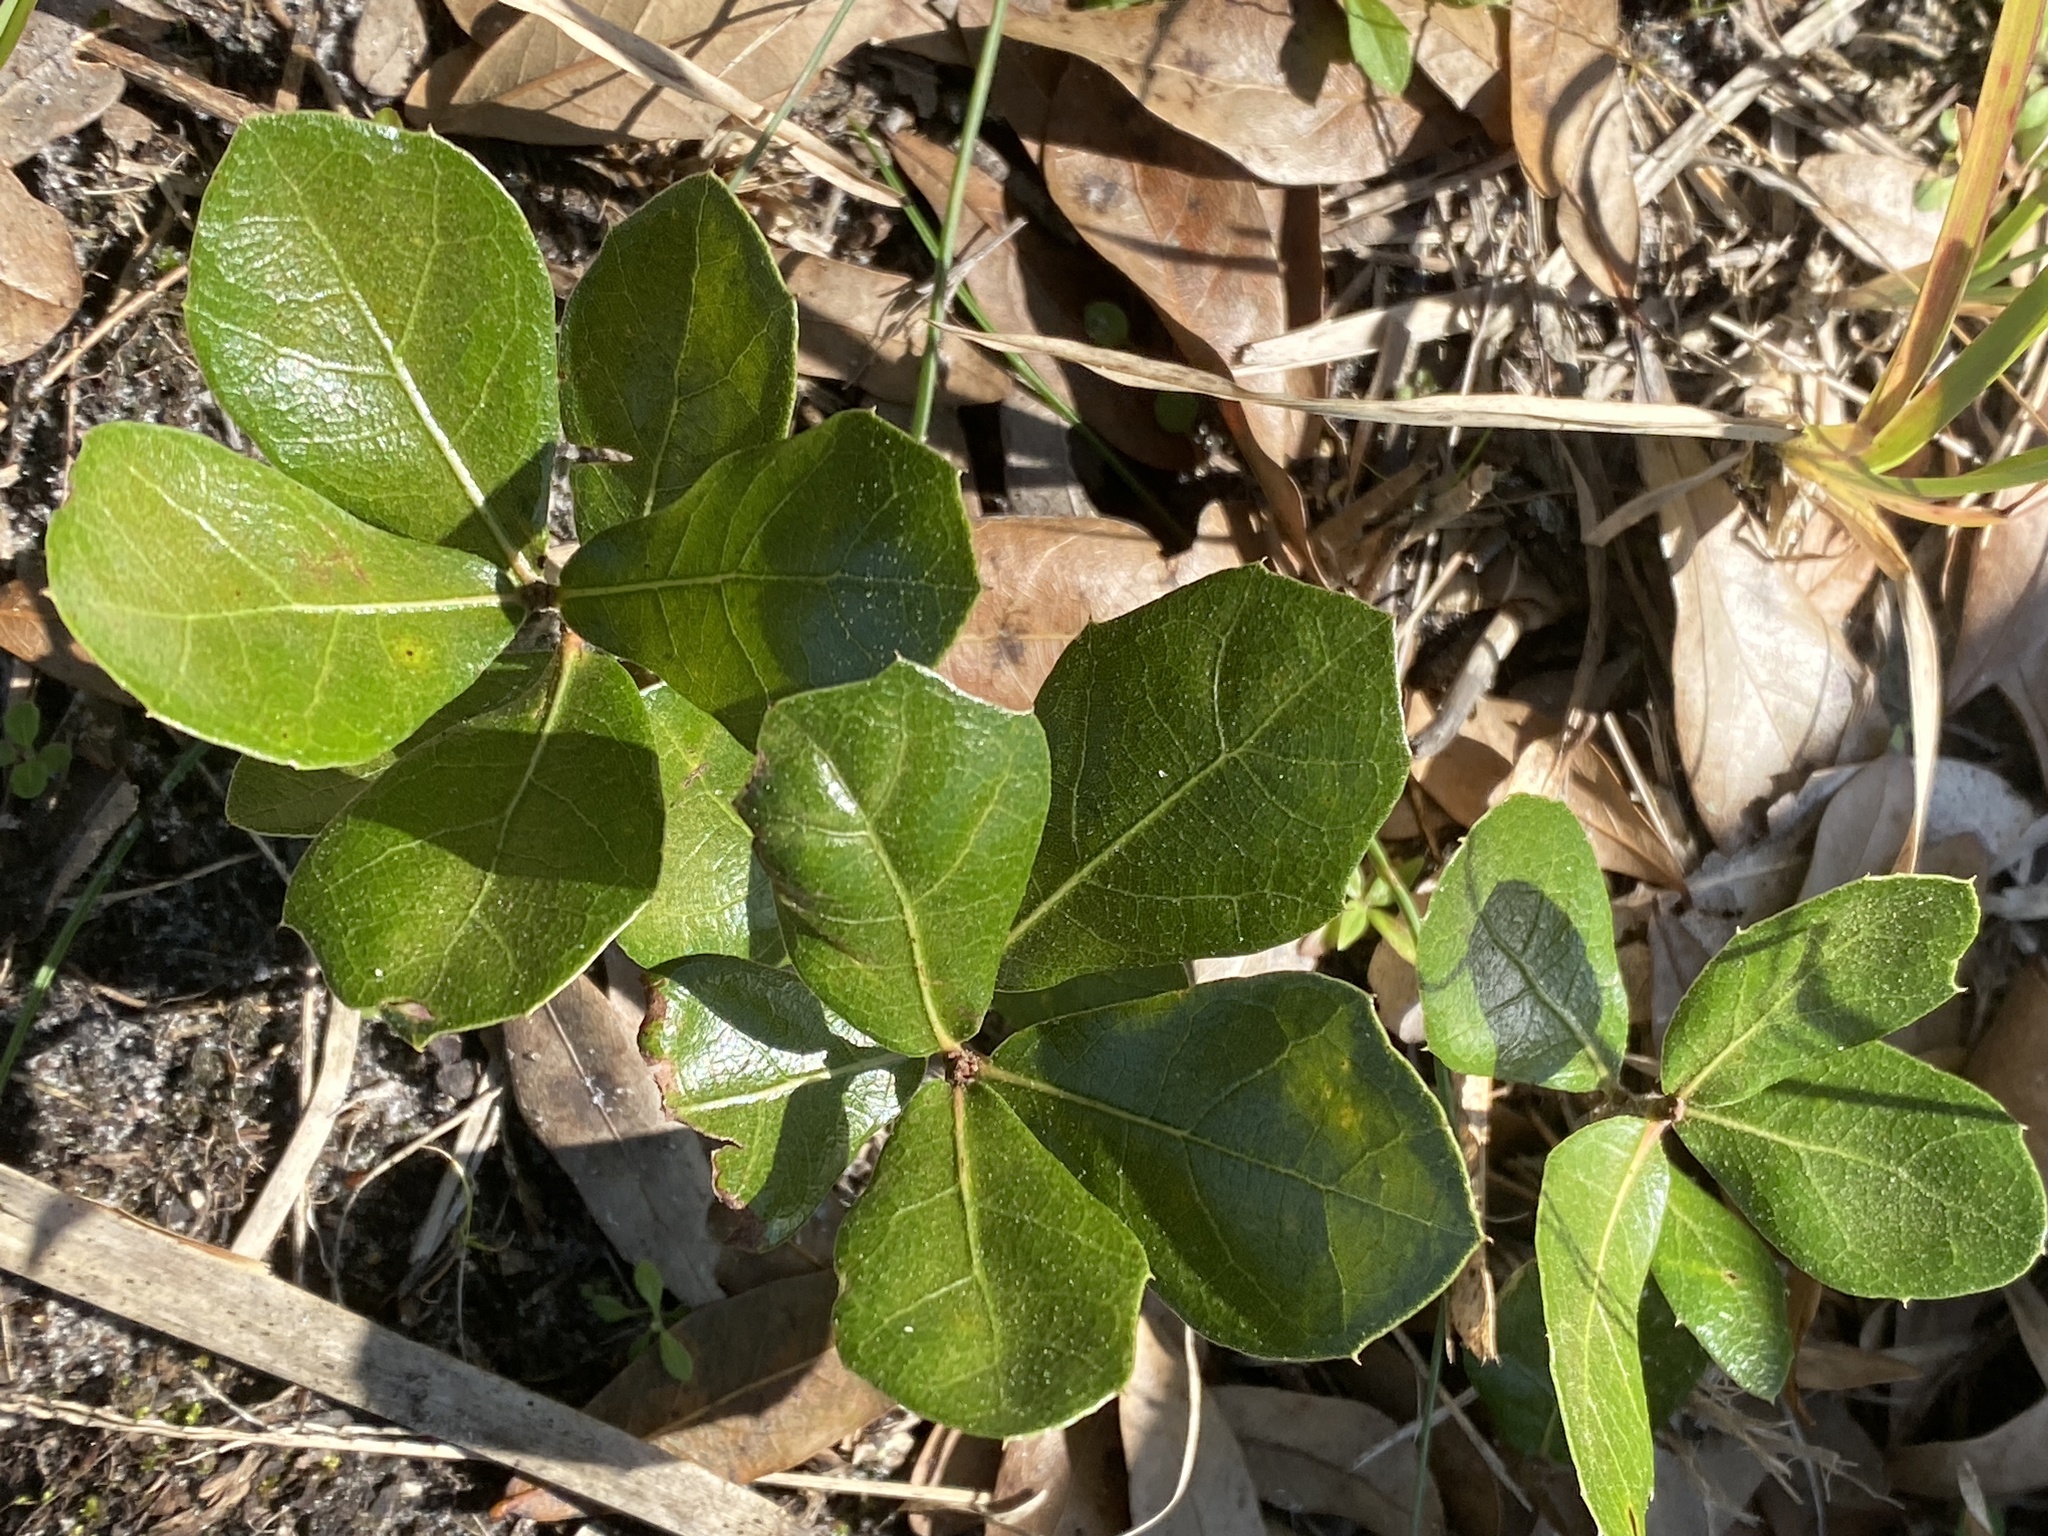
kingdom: Plantae
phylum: Tracheophyta
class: Magnoliopsida
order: Fagales
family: Fagaceae
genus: Quercus
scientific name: Quercus myrtifolia
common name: Myrtle oak
